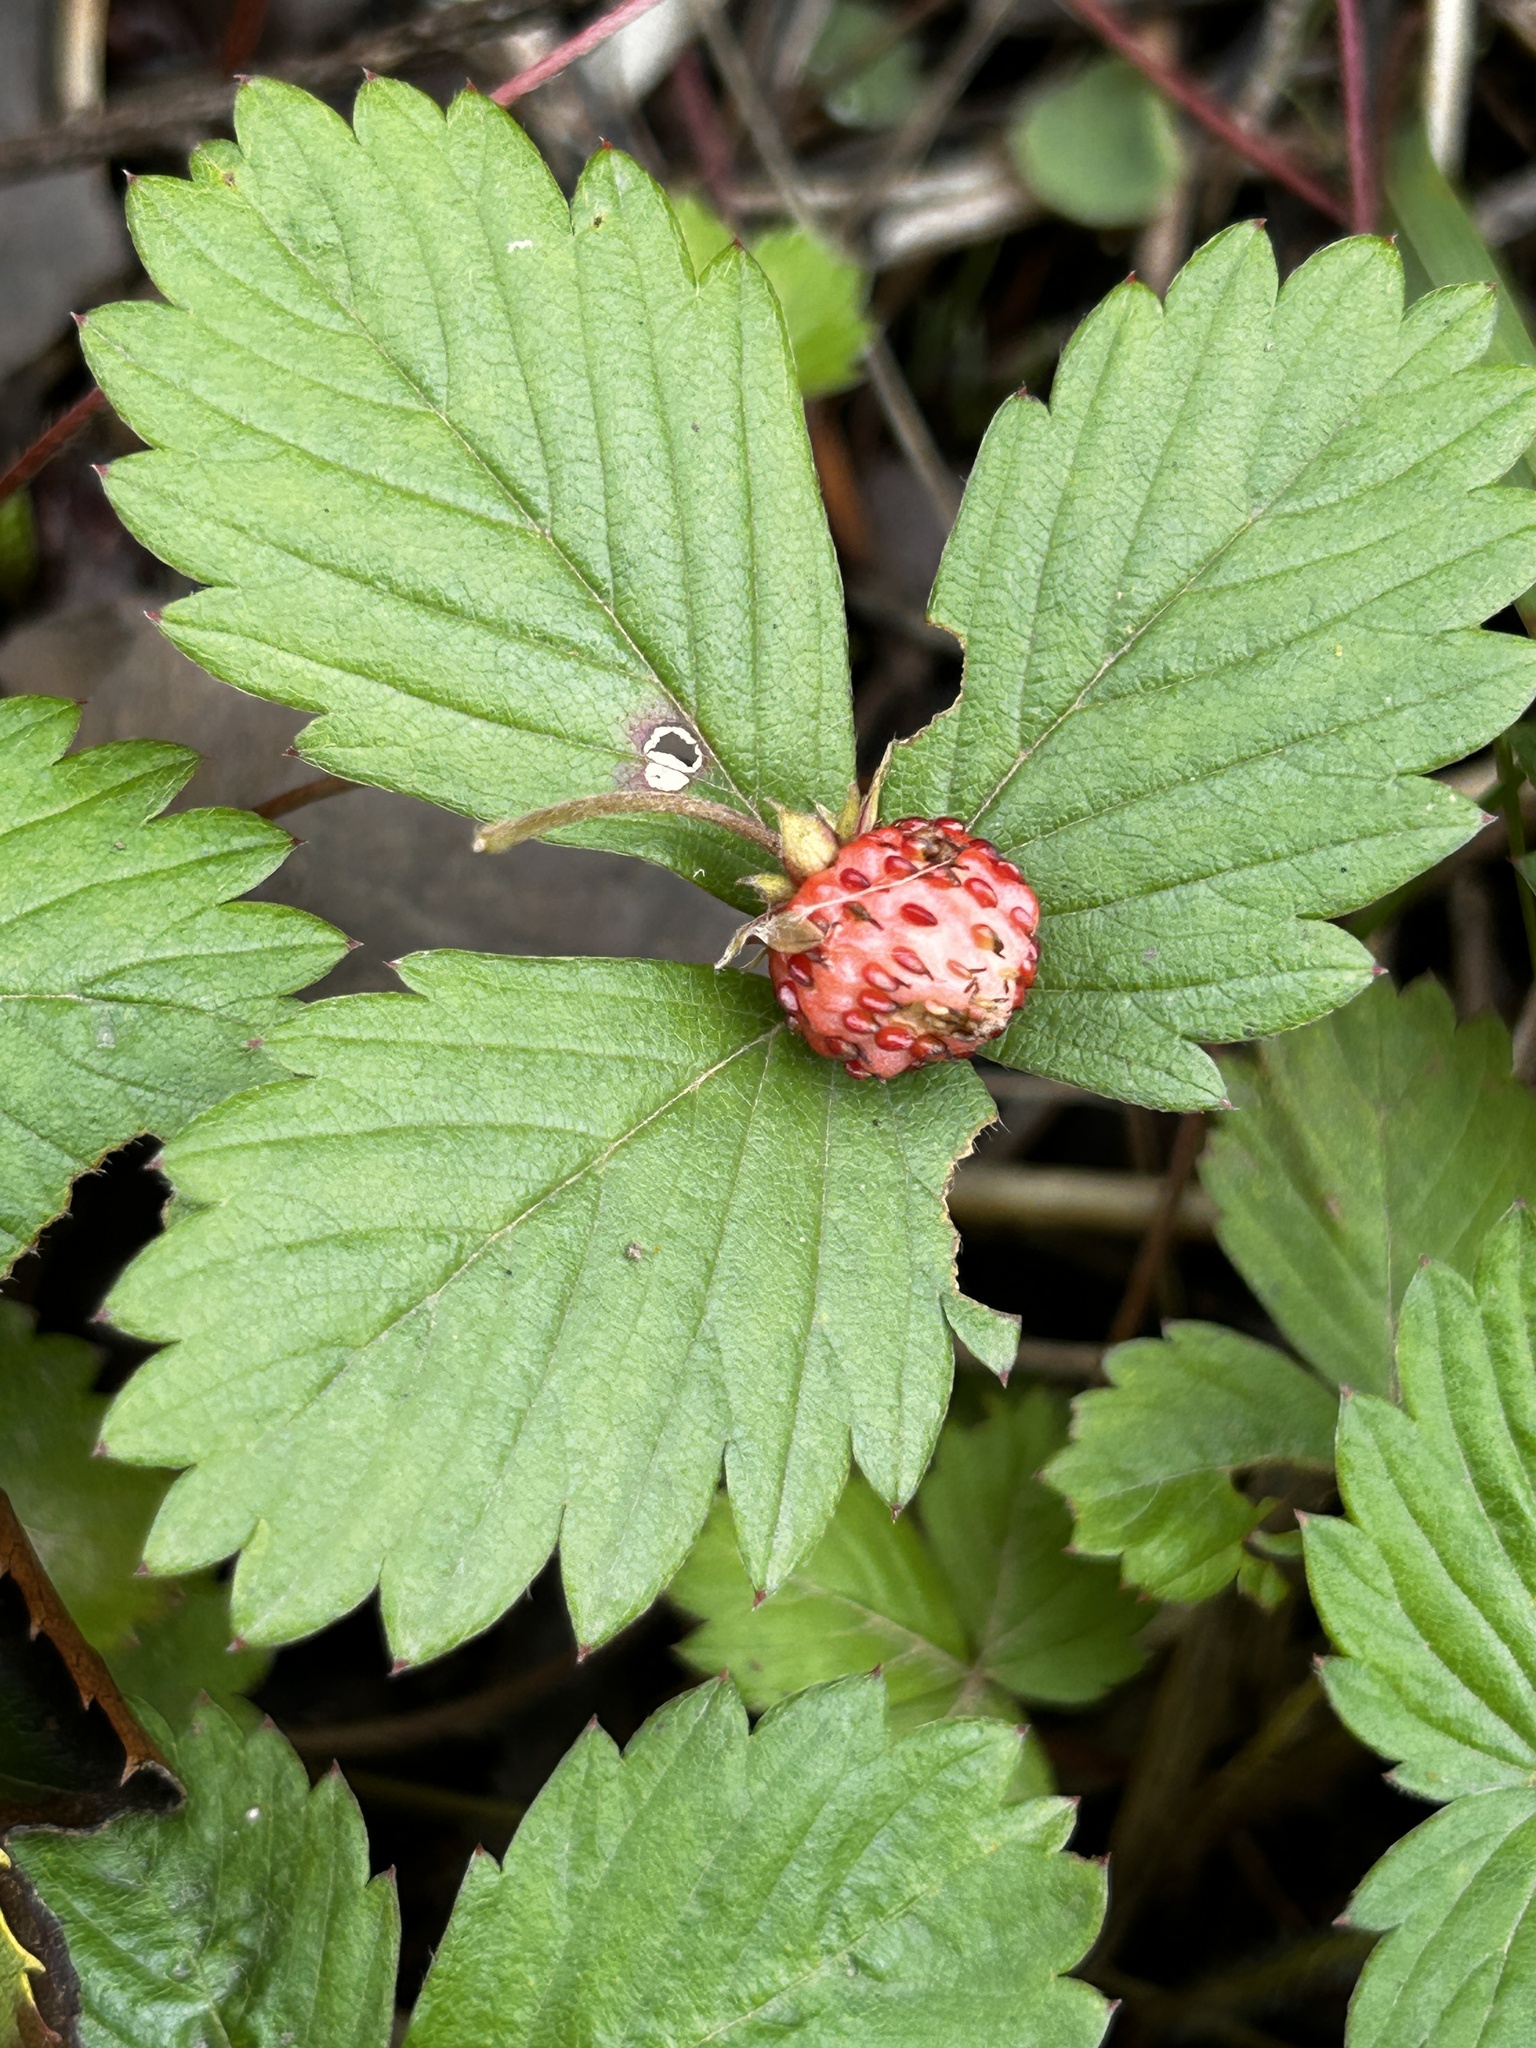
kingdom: Plantae
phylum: Tracheophyta
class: Magnoliopsida
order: Rosales
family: Rosaceae
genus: Fragaria
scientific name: Fragaria vesca
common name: Wild strawberry
